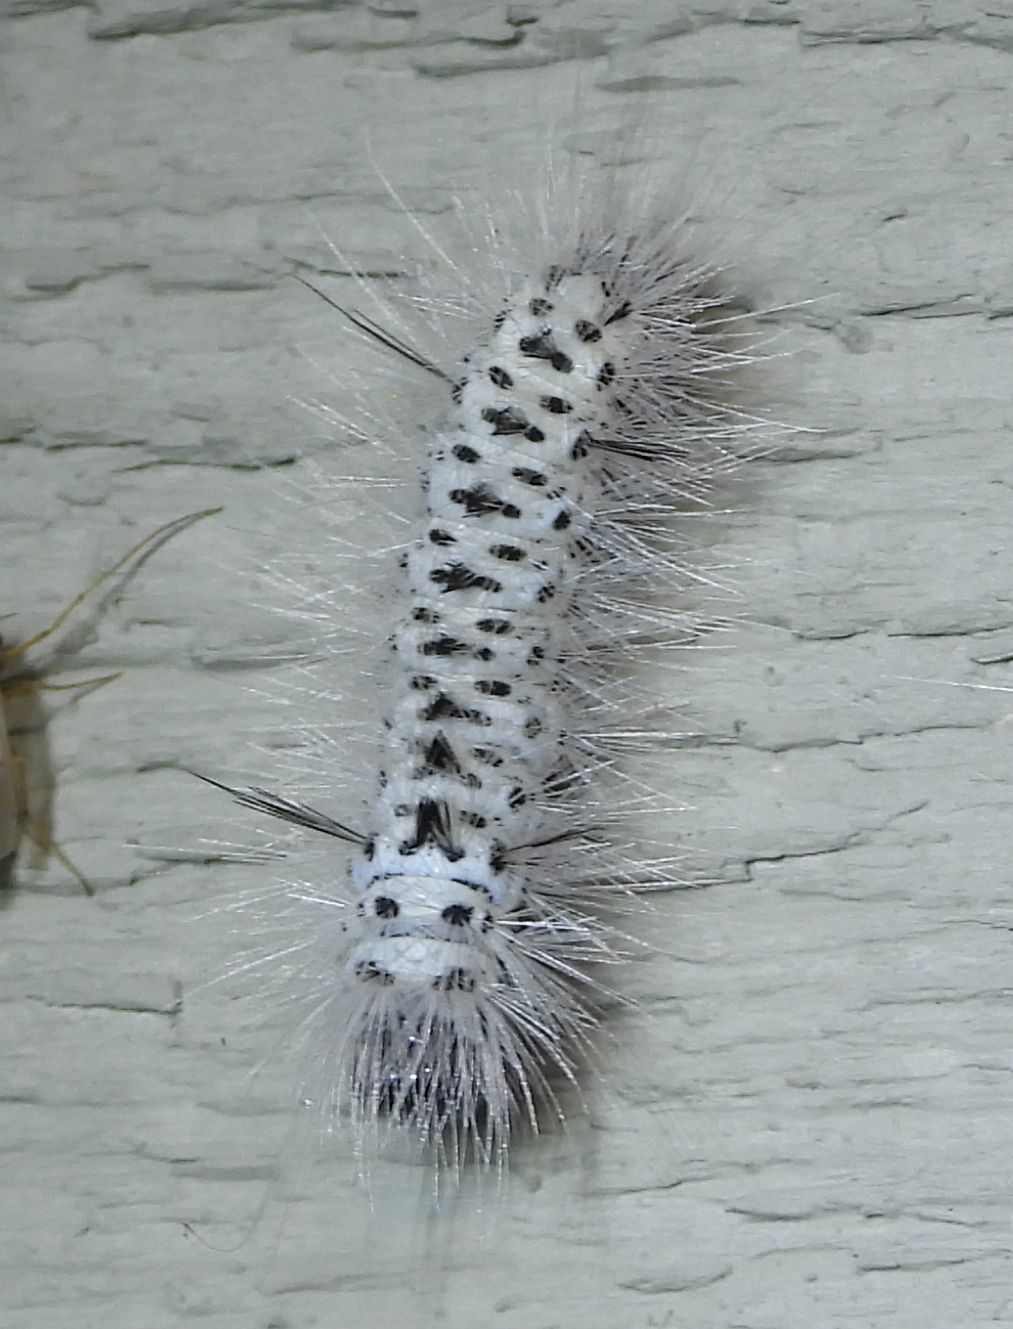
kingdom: Animalia
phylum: Arthropoda
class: Insecta
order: Lepidoptera
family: Erebidae
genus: Lophocampa
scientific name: Lophocampa caryae
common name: Hickory tussock moth
